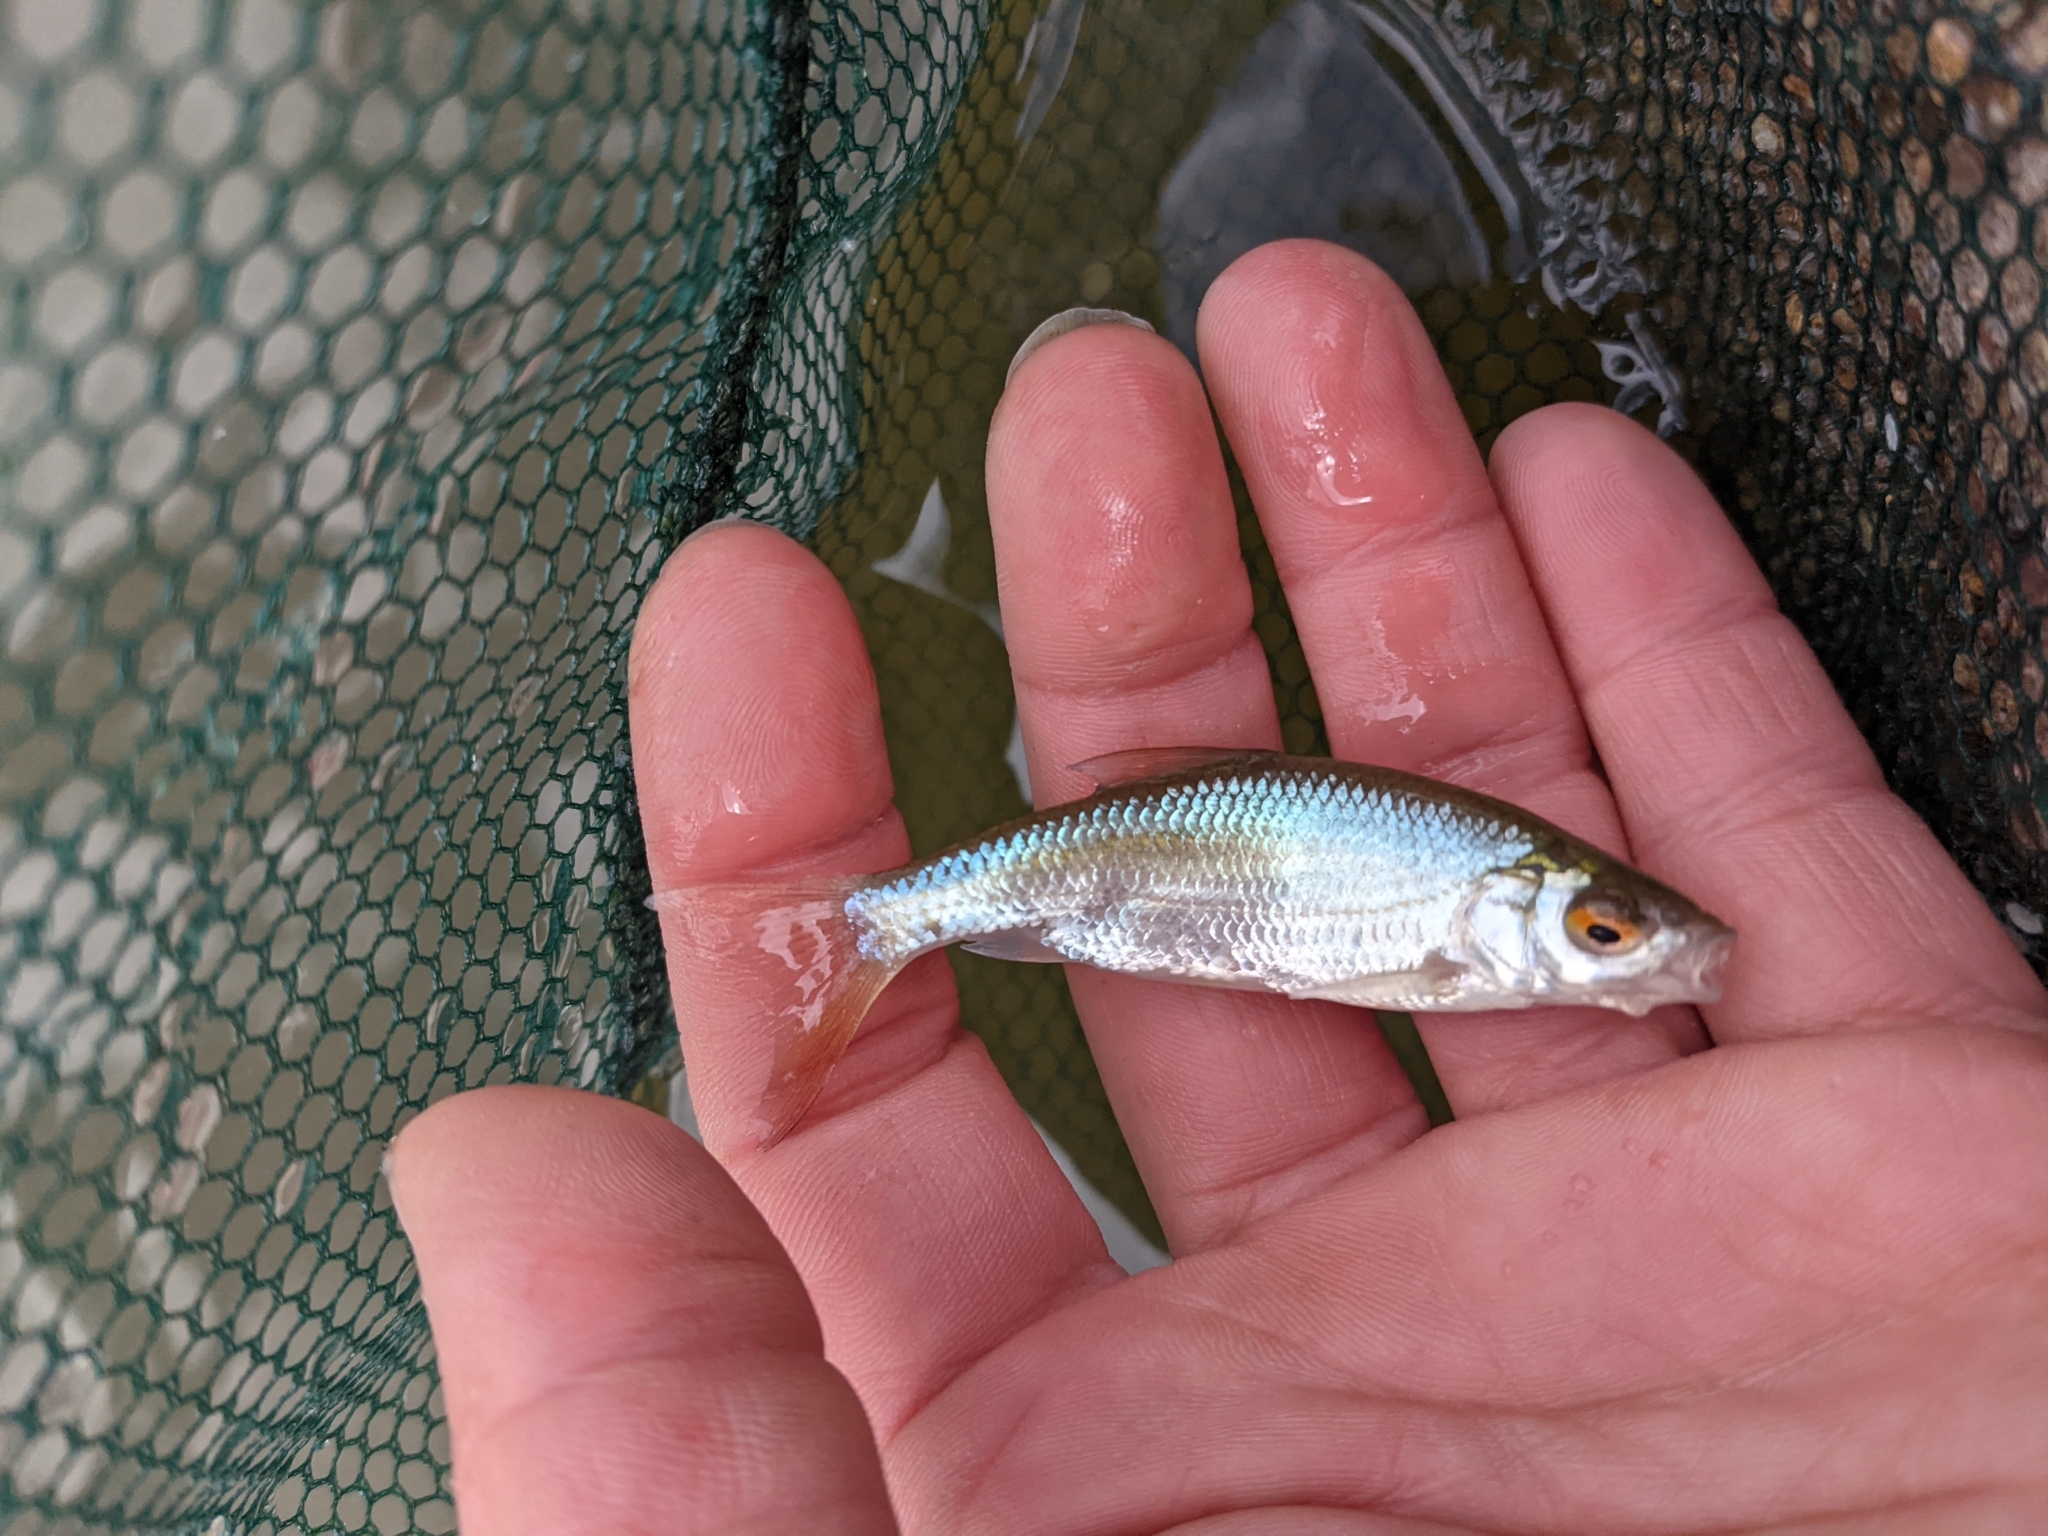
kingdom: Animalia
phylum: Chordata
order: Cypriniformes
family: Cyprinidae
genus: Rutilus
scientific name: Rutilus rutilus
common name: Roach
